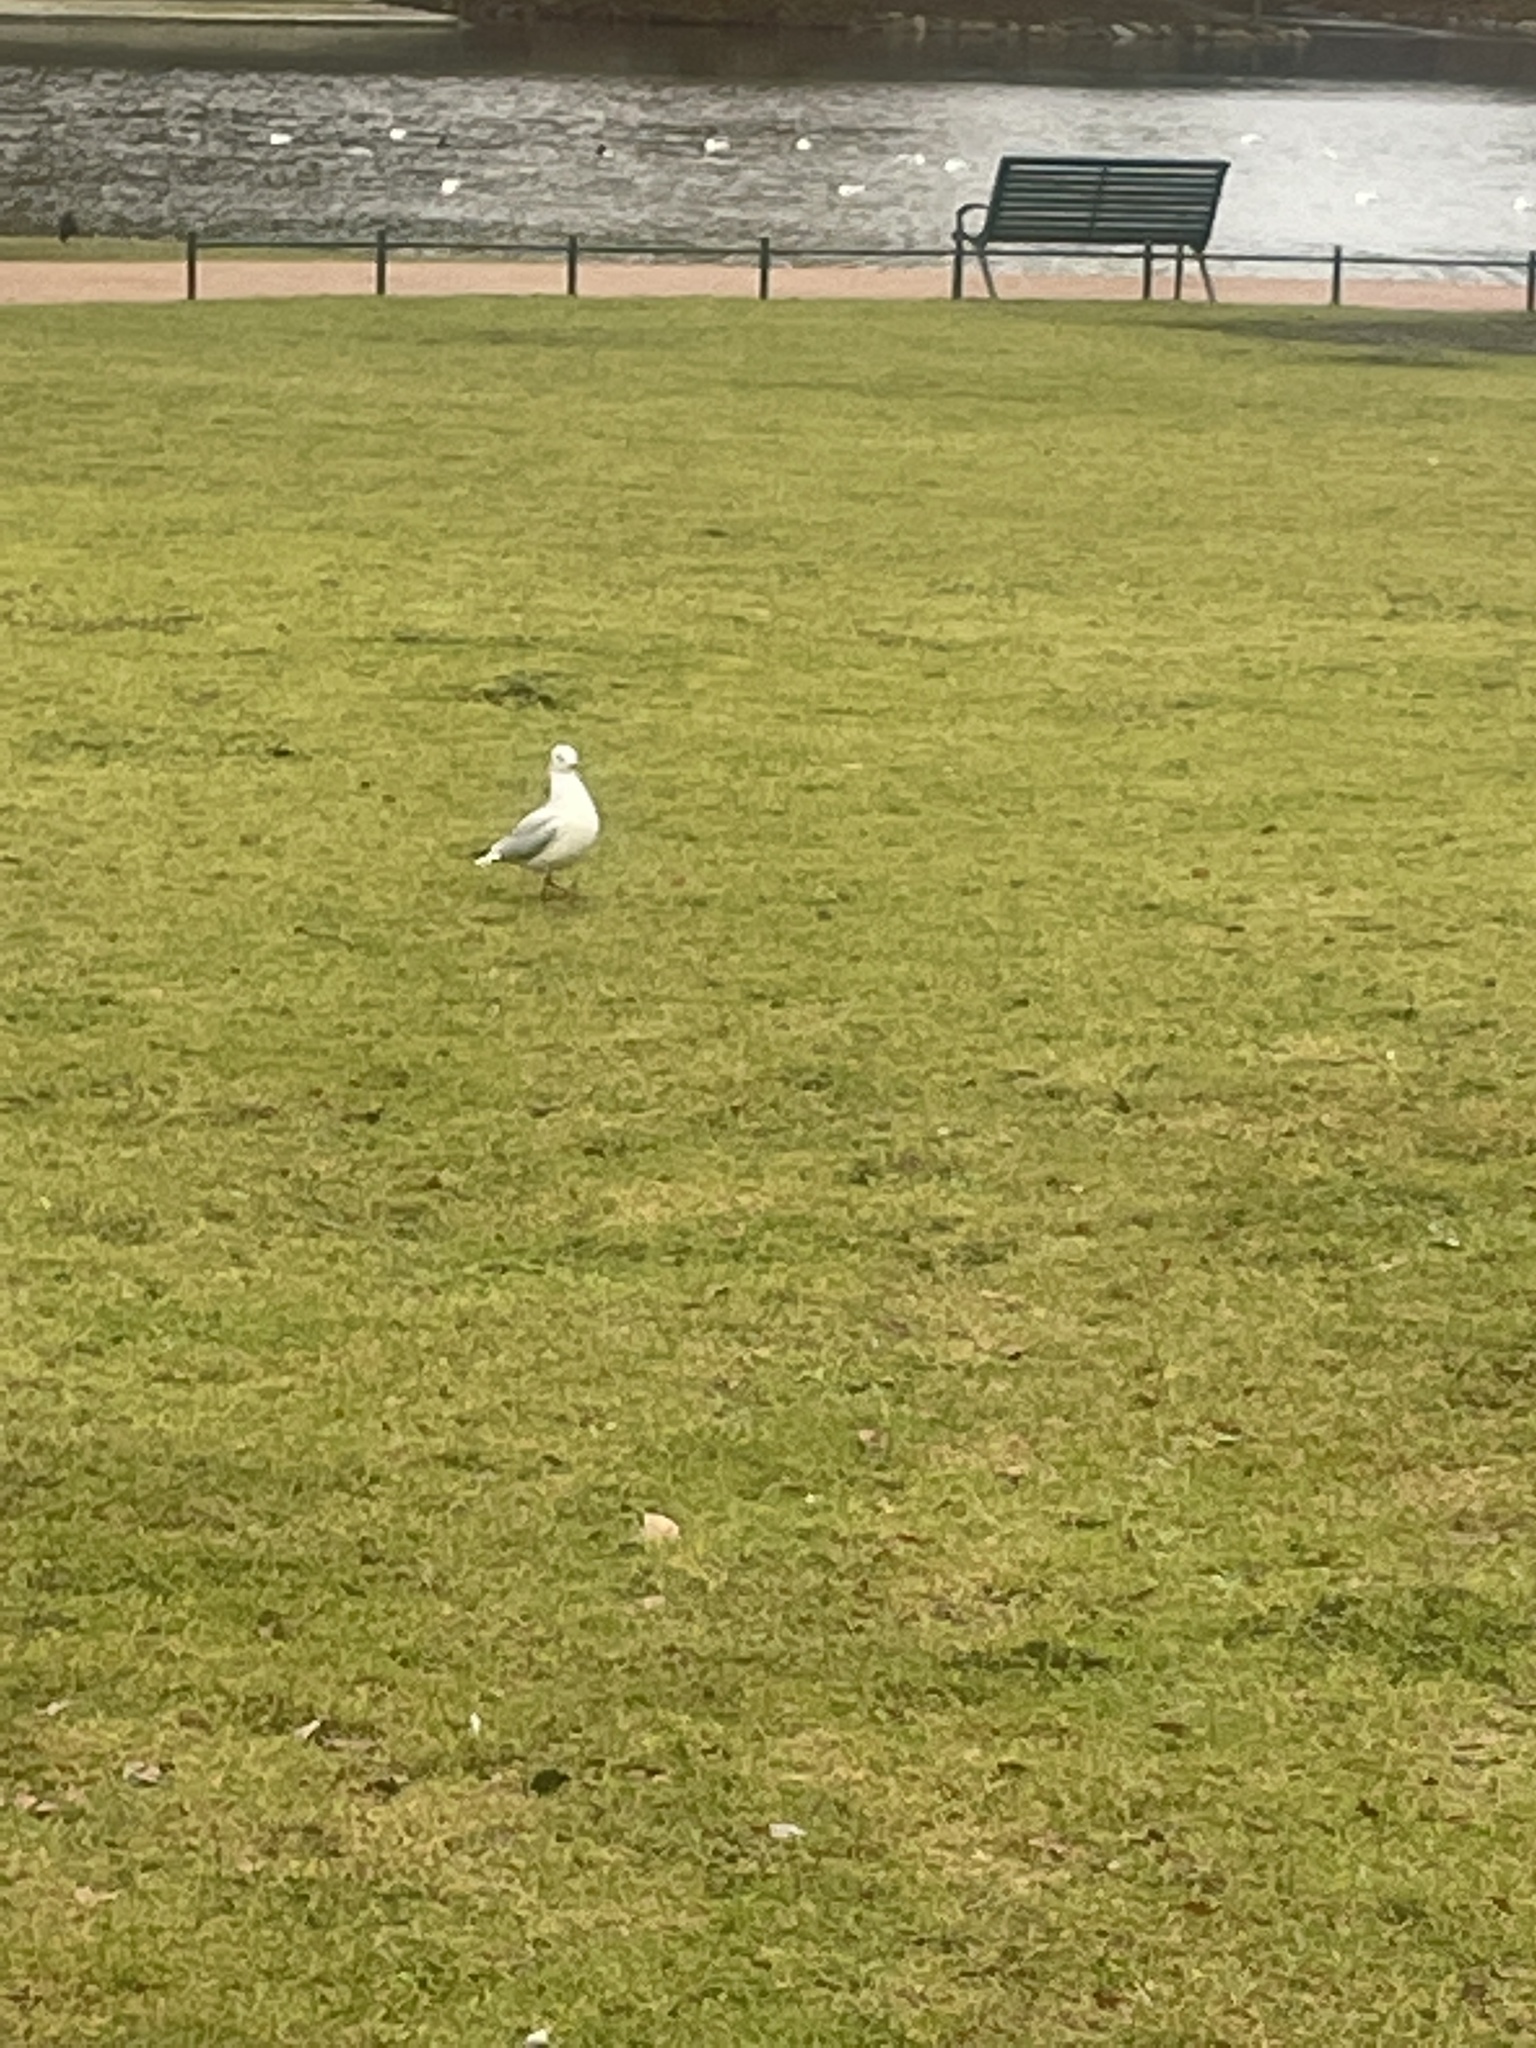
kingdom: Animalia
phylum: Chordata
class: Aves
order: Charadriiformes
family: Laridae
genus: Chroicocephalus
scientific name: Chroicocephalus ridibundus
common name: Black-headed gull
